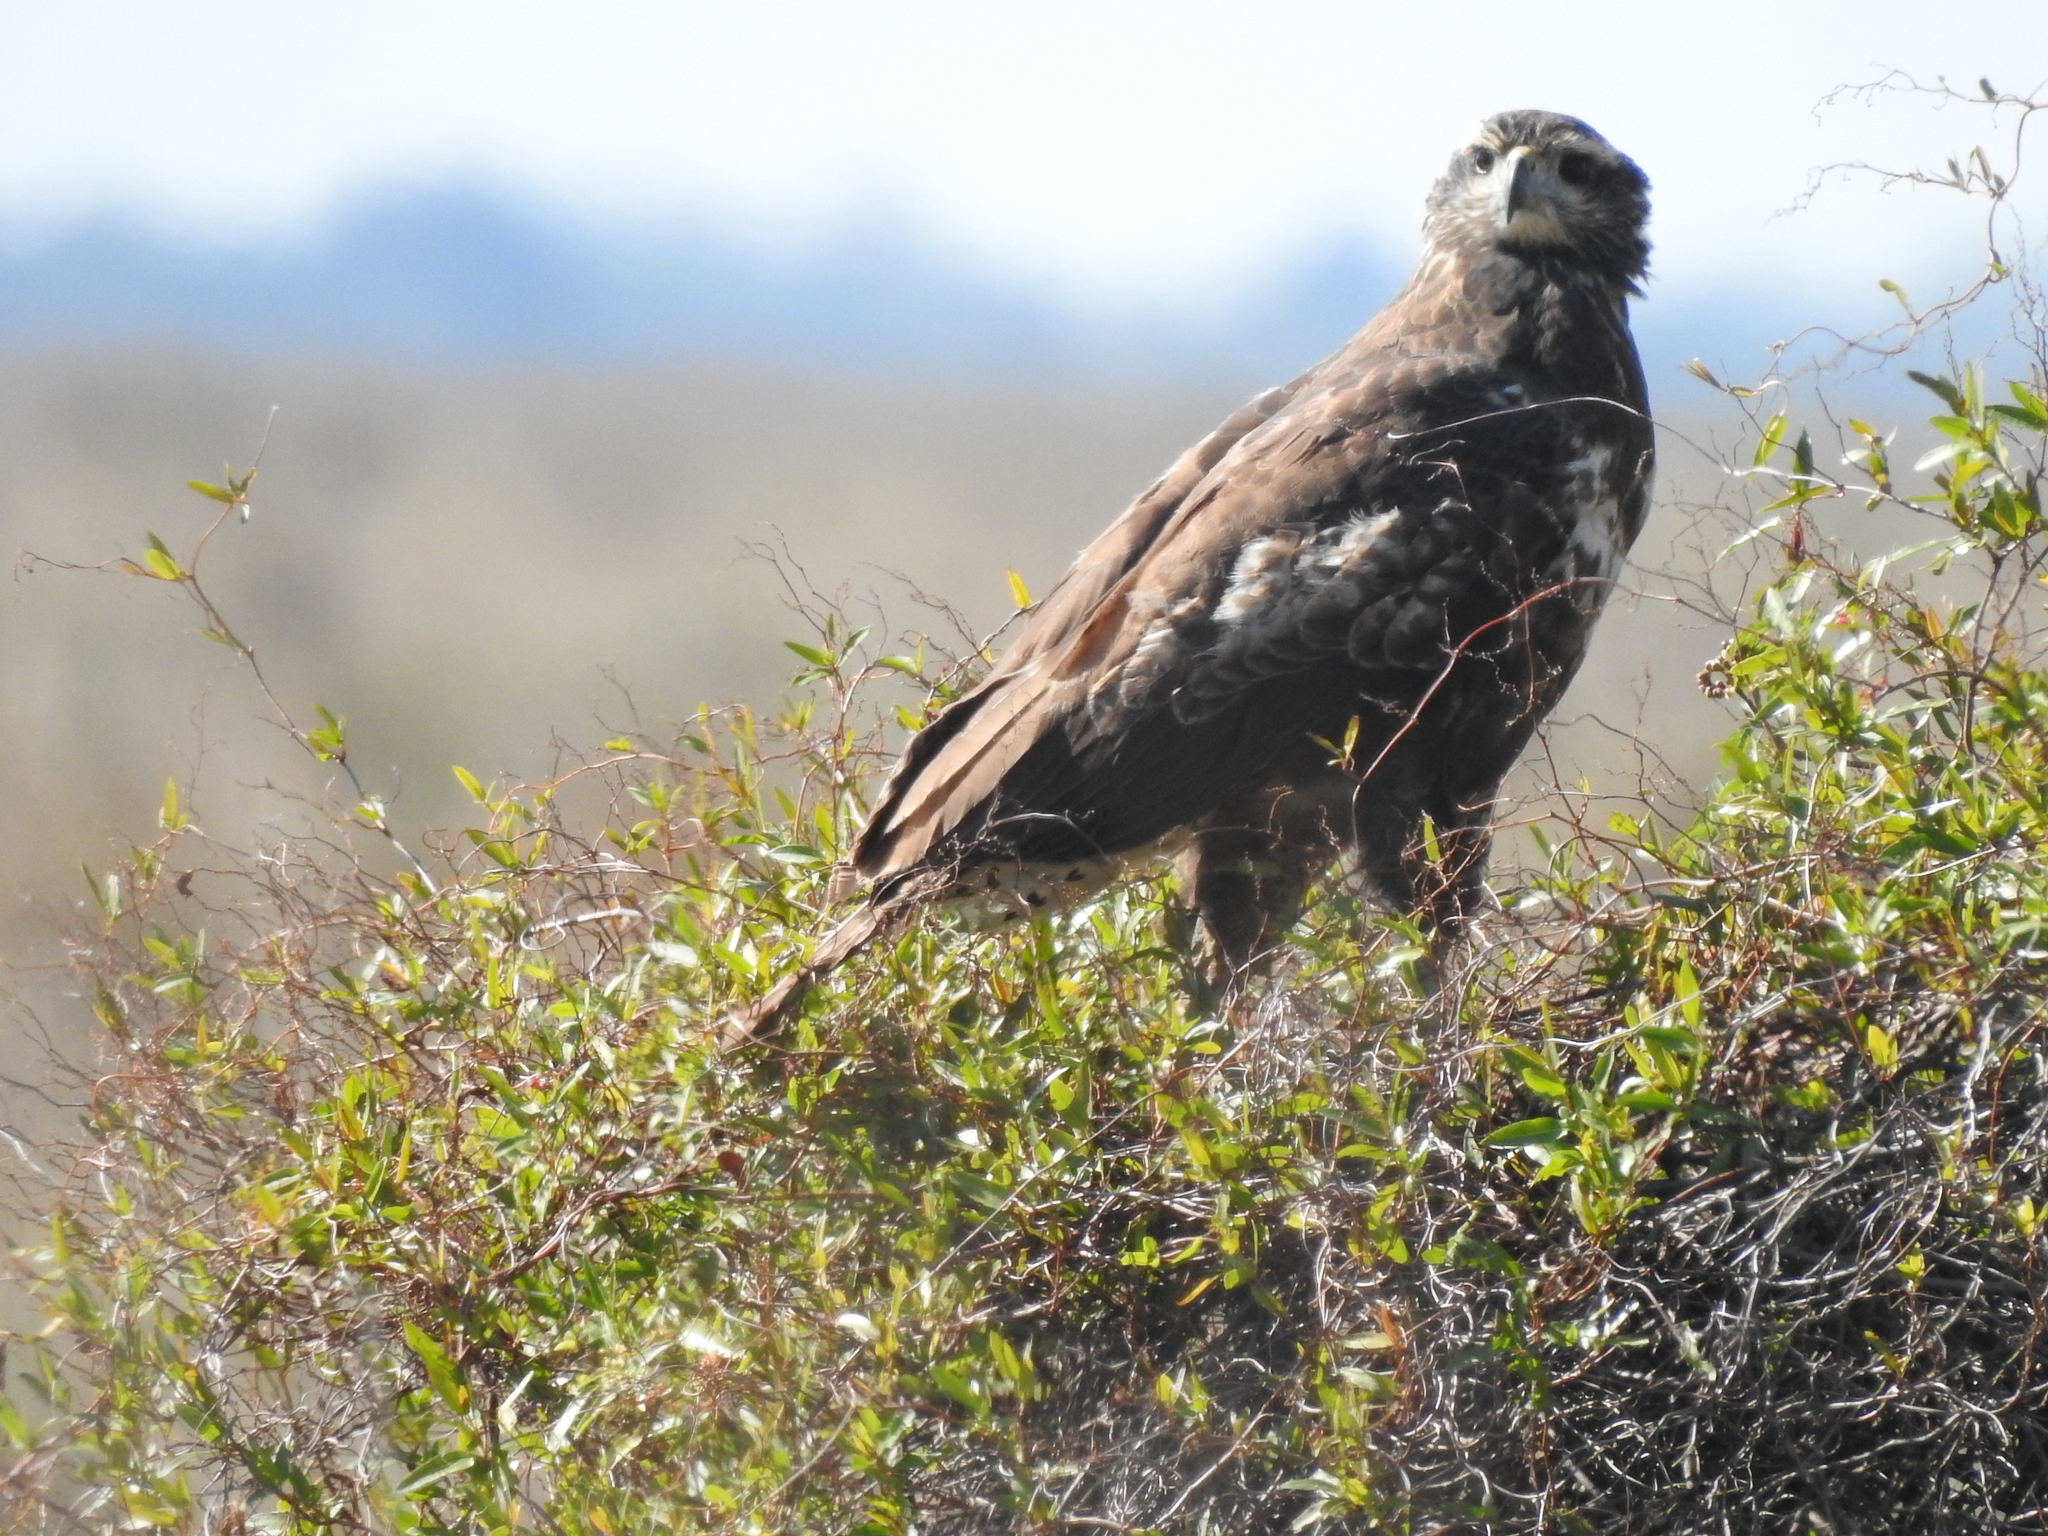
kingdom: Animalia
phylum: Chordata
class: Aves
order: Accipitriformes
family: Accipitridae
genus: Buteogallus
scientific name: Buteogallus urubitinga
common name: Great black hawk
